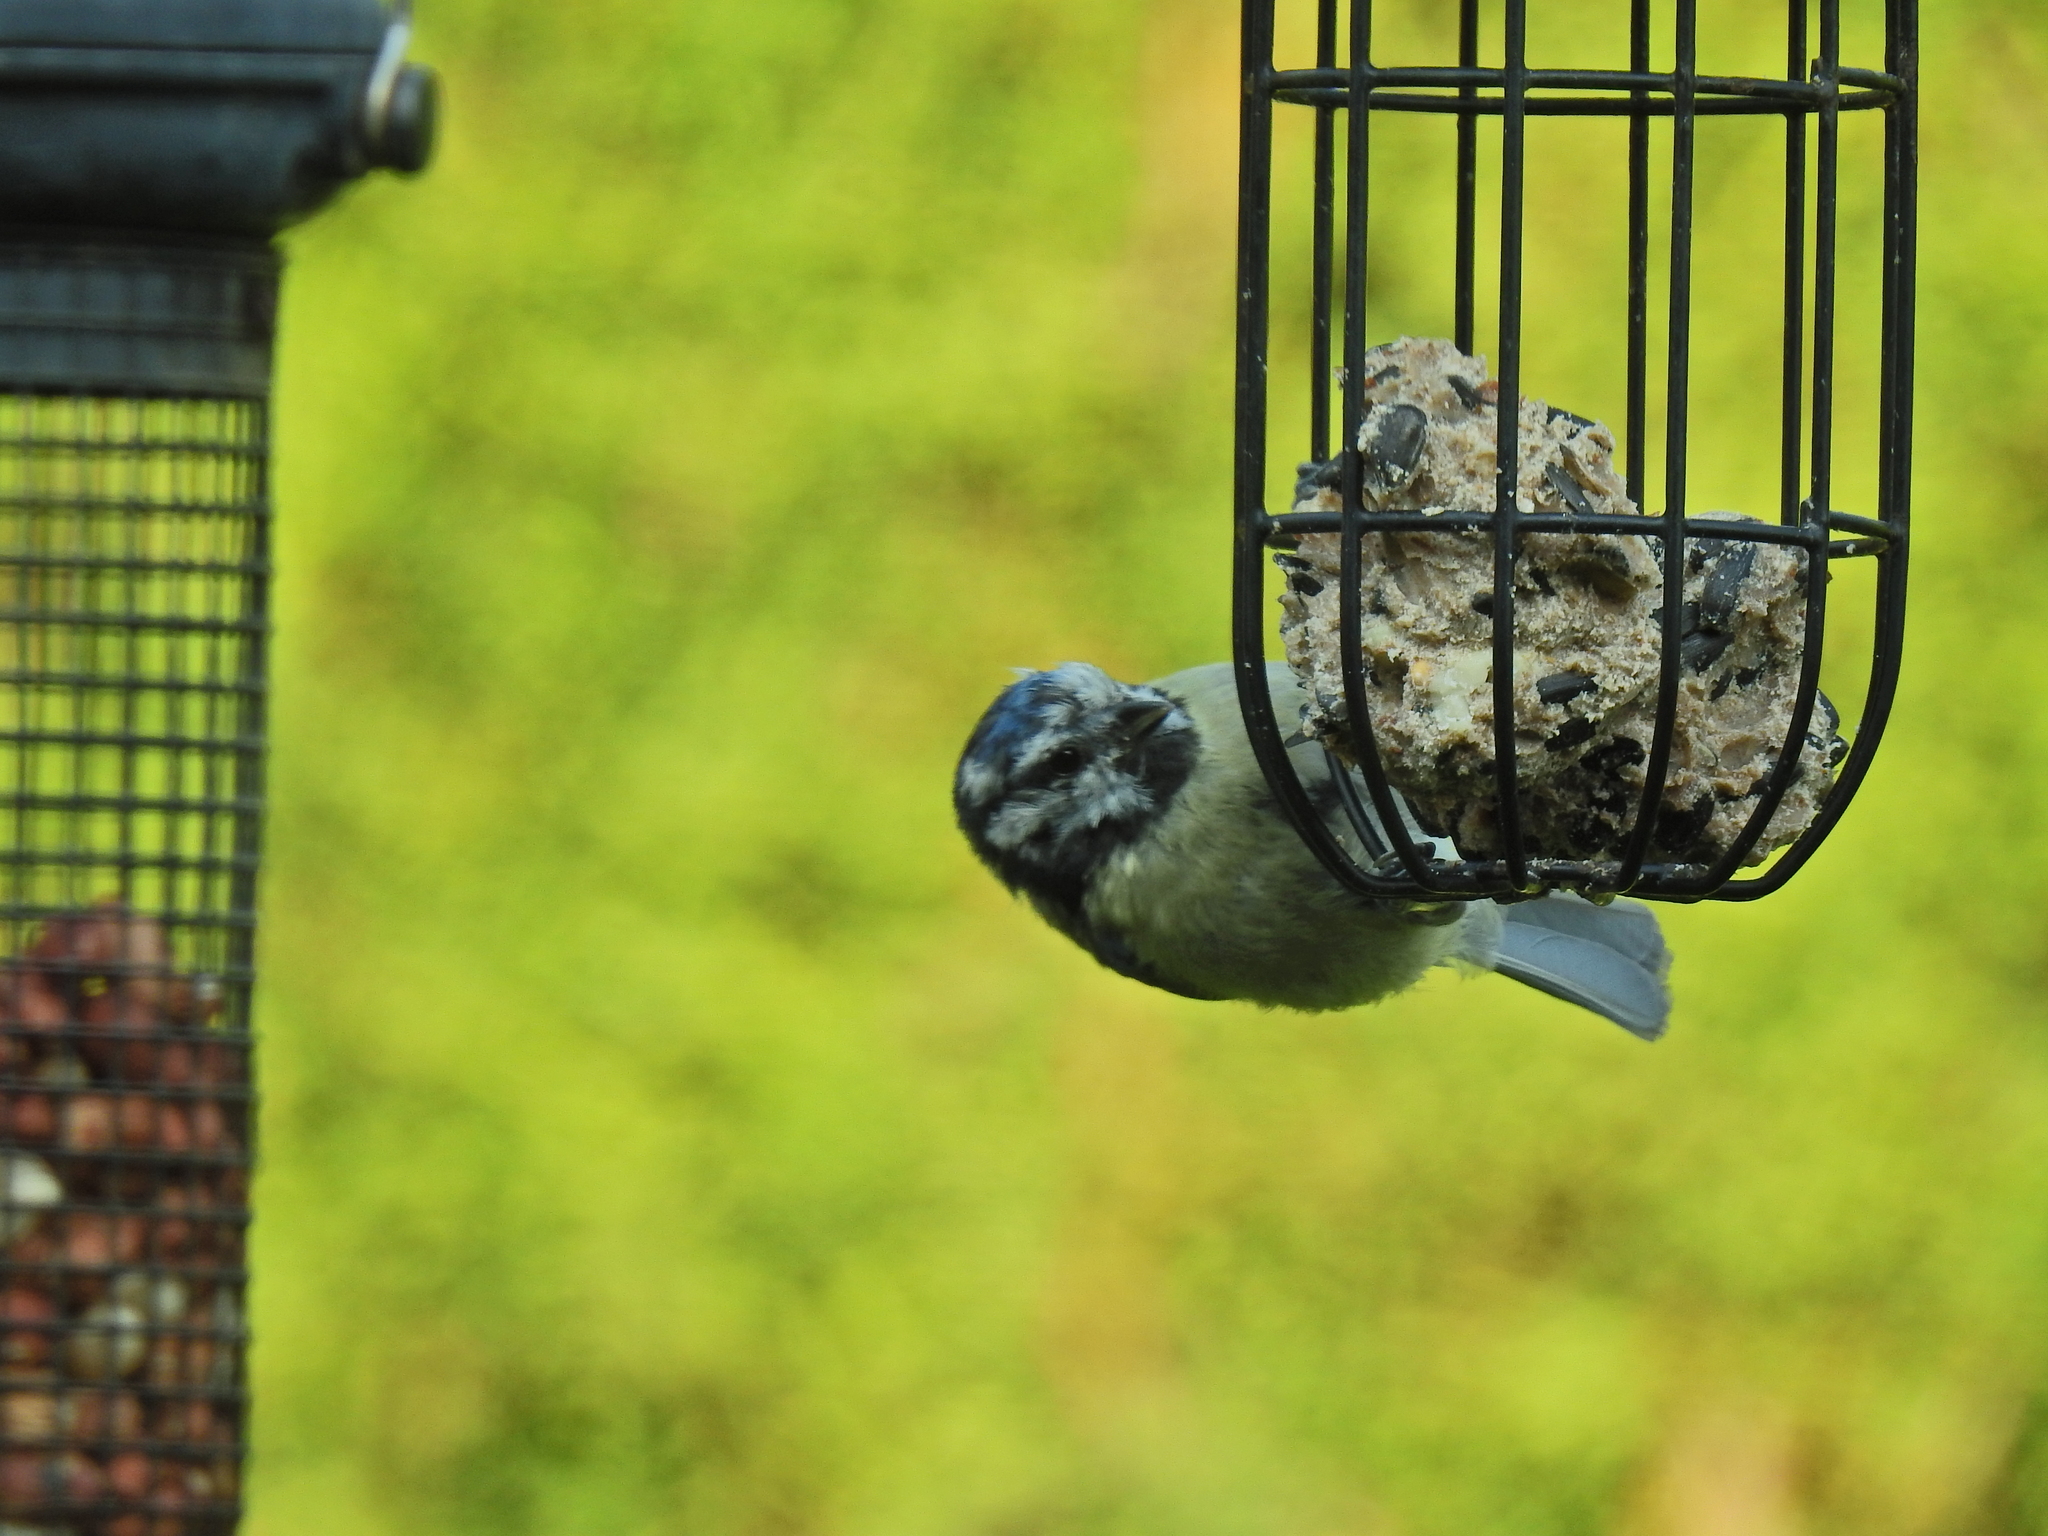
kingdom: Animalia
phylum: Chordata
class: Aves
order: Passeriformes
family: Paridae
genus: Cyanistes
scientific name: Cyanistes caeruleus
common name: Eurasian blue tit
